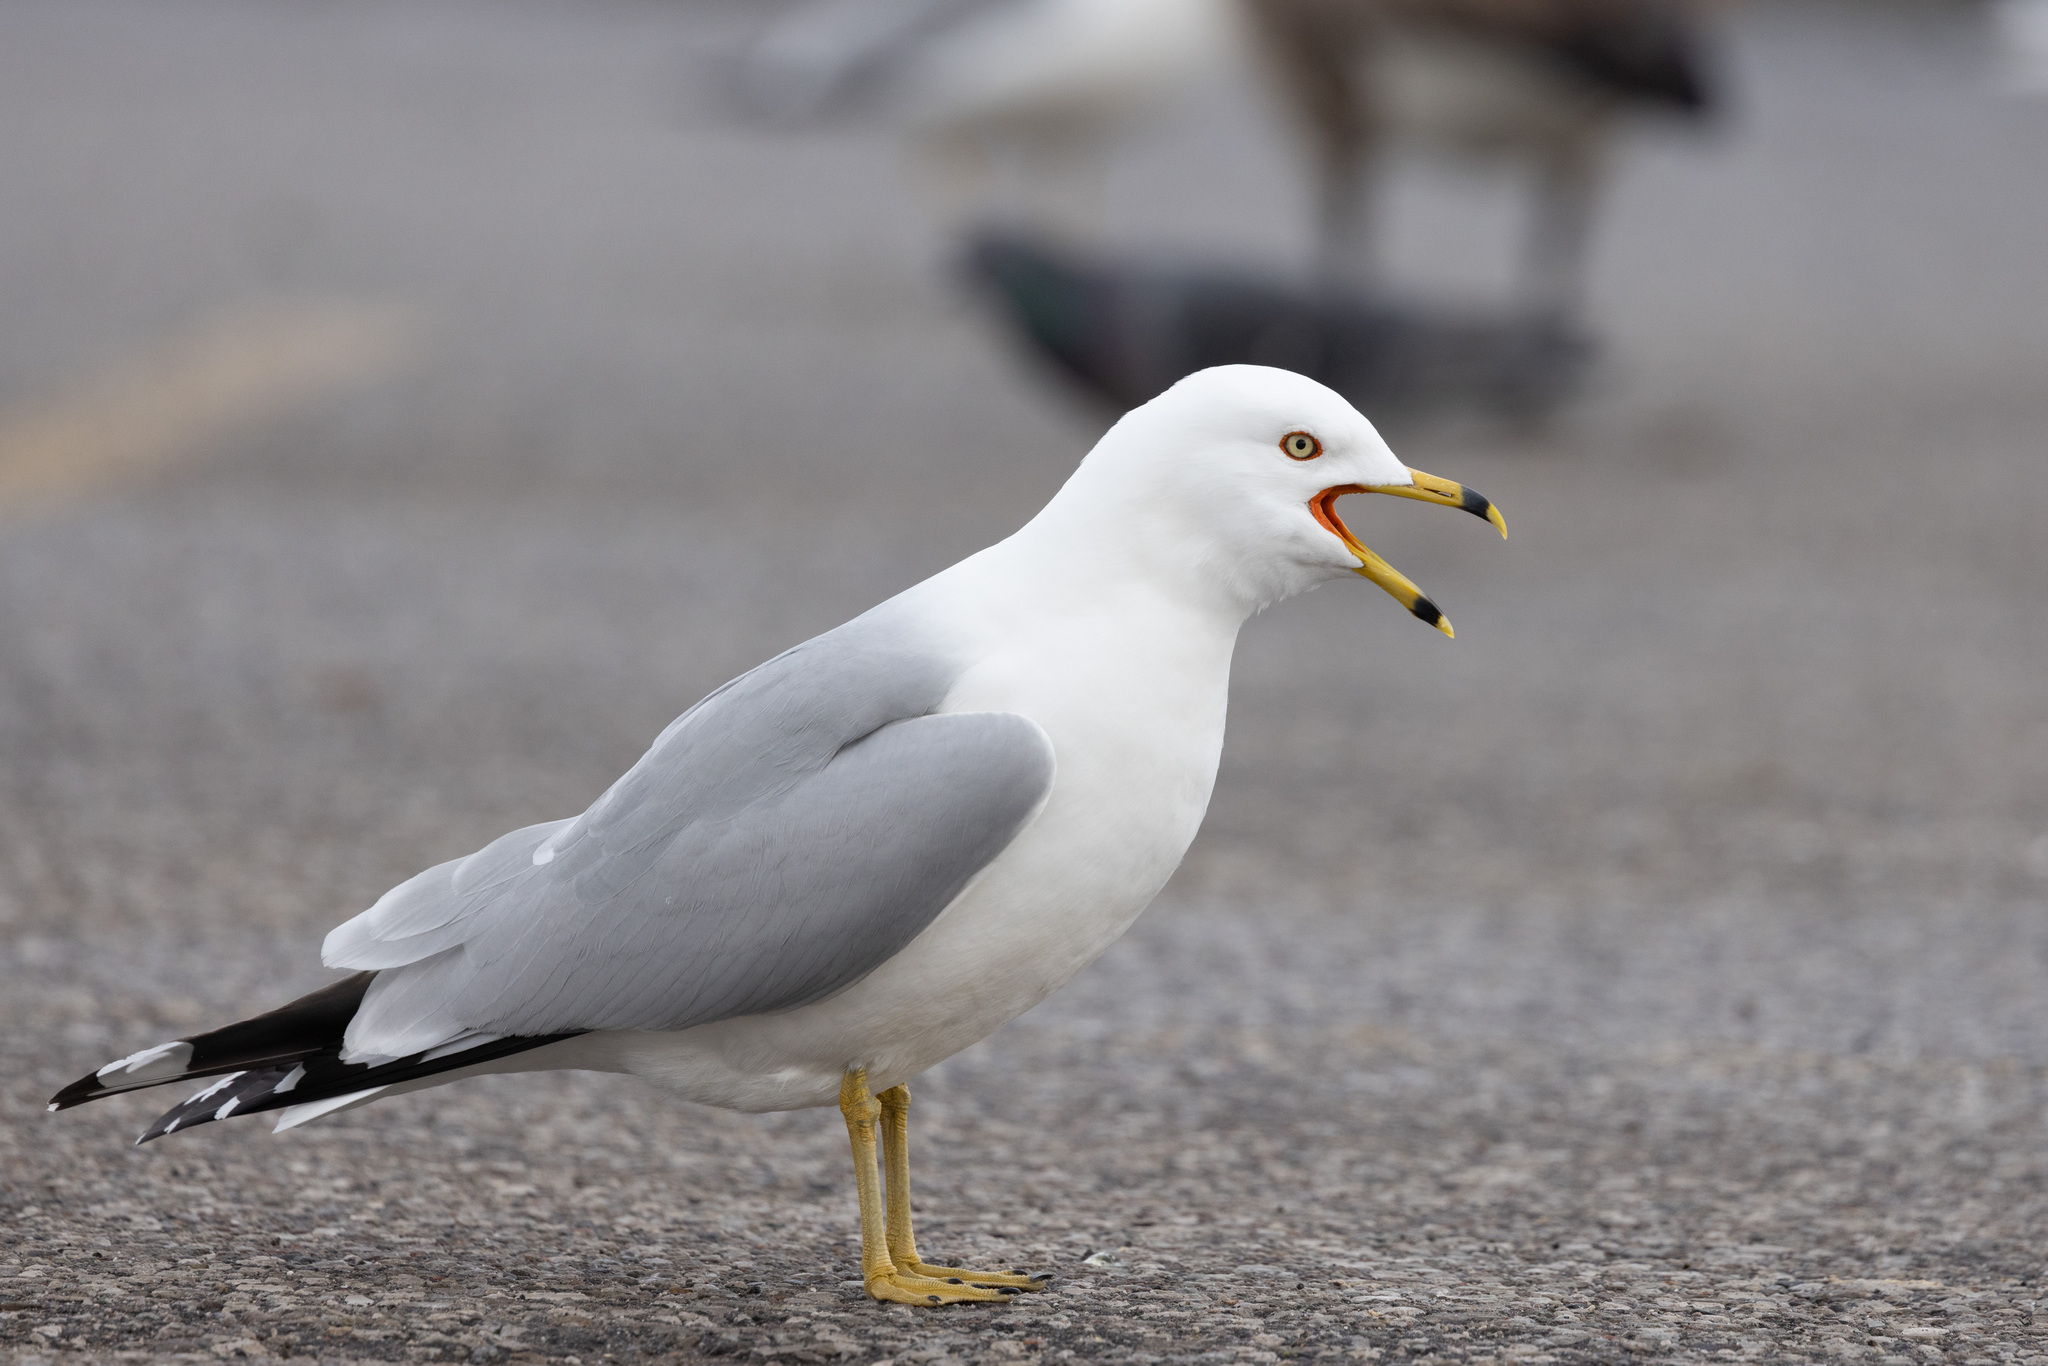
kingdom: Animalia
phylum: Chordata
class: Aves
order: Charadriiformes
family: Laridae
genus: Larus
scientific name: Larus delawarensis
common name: Ring-billed gull
